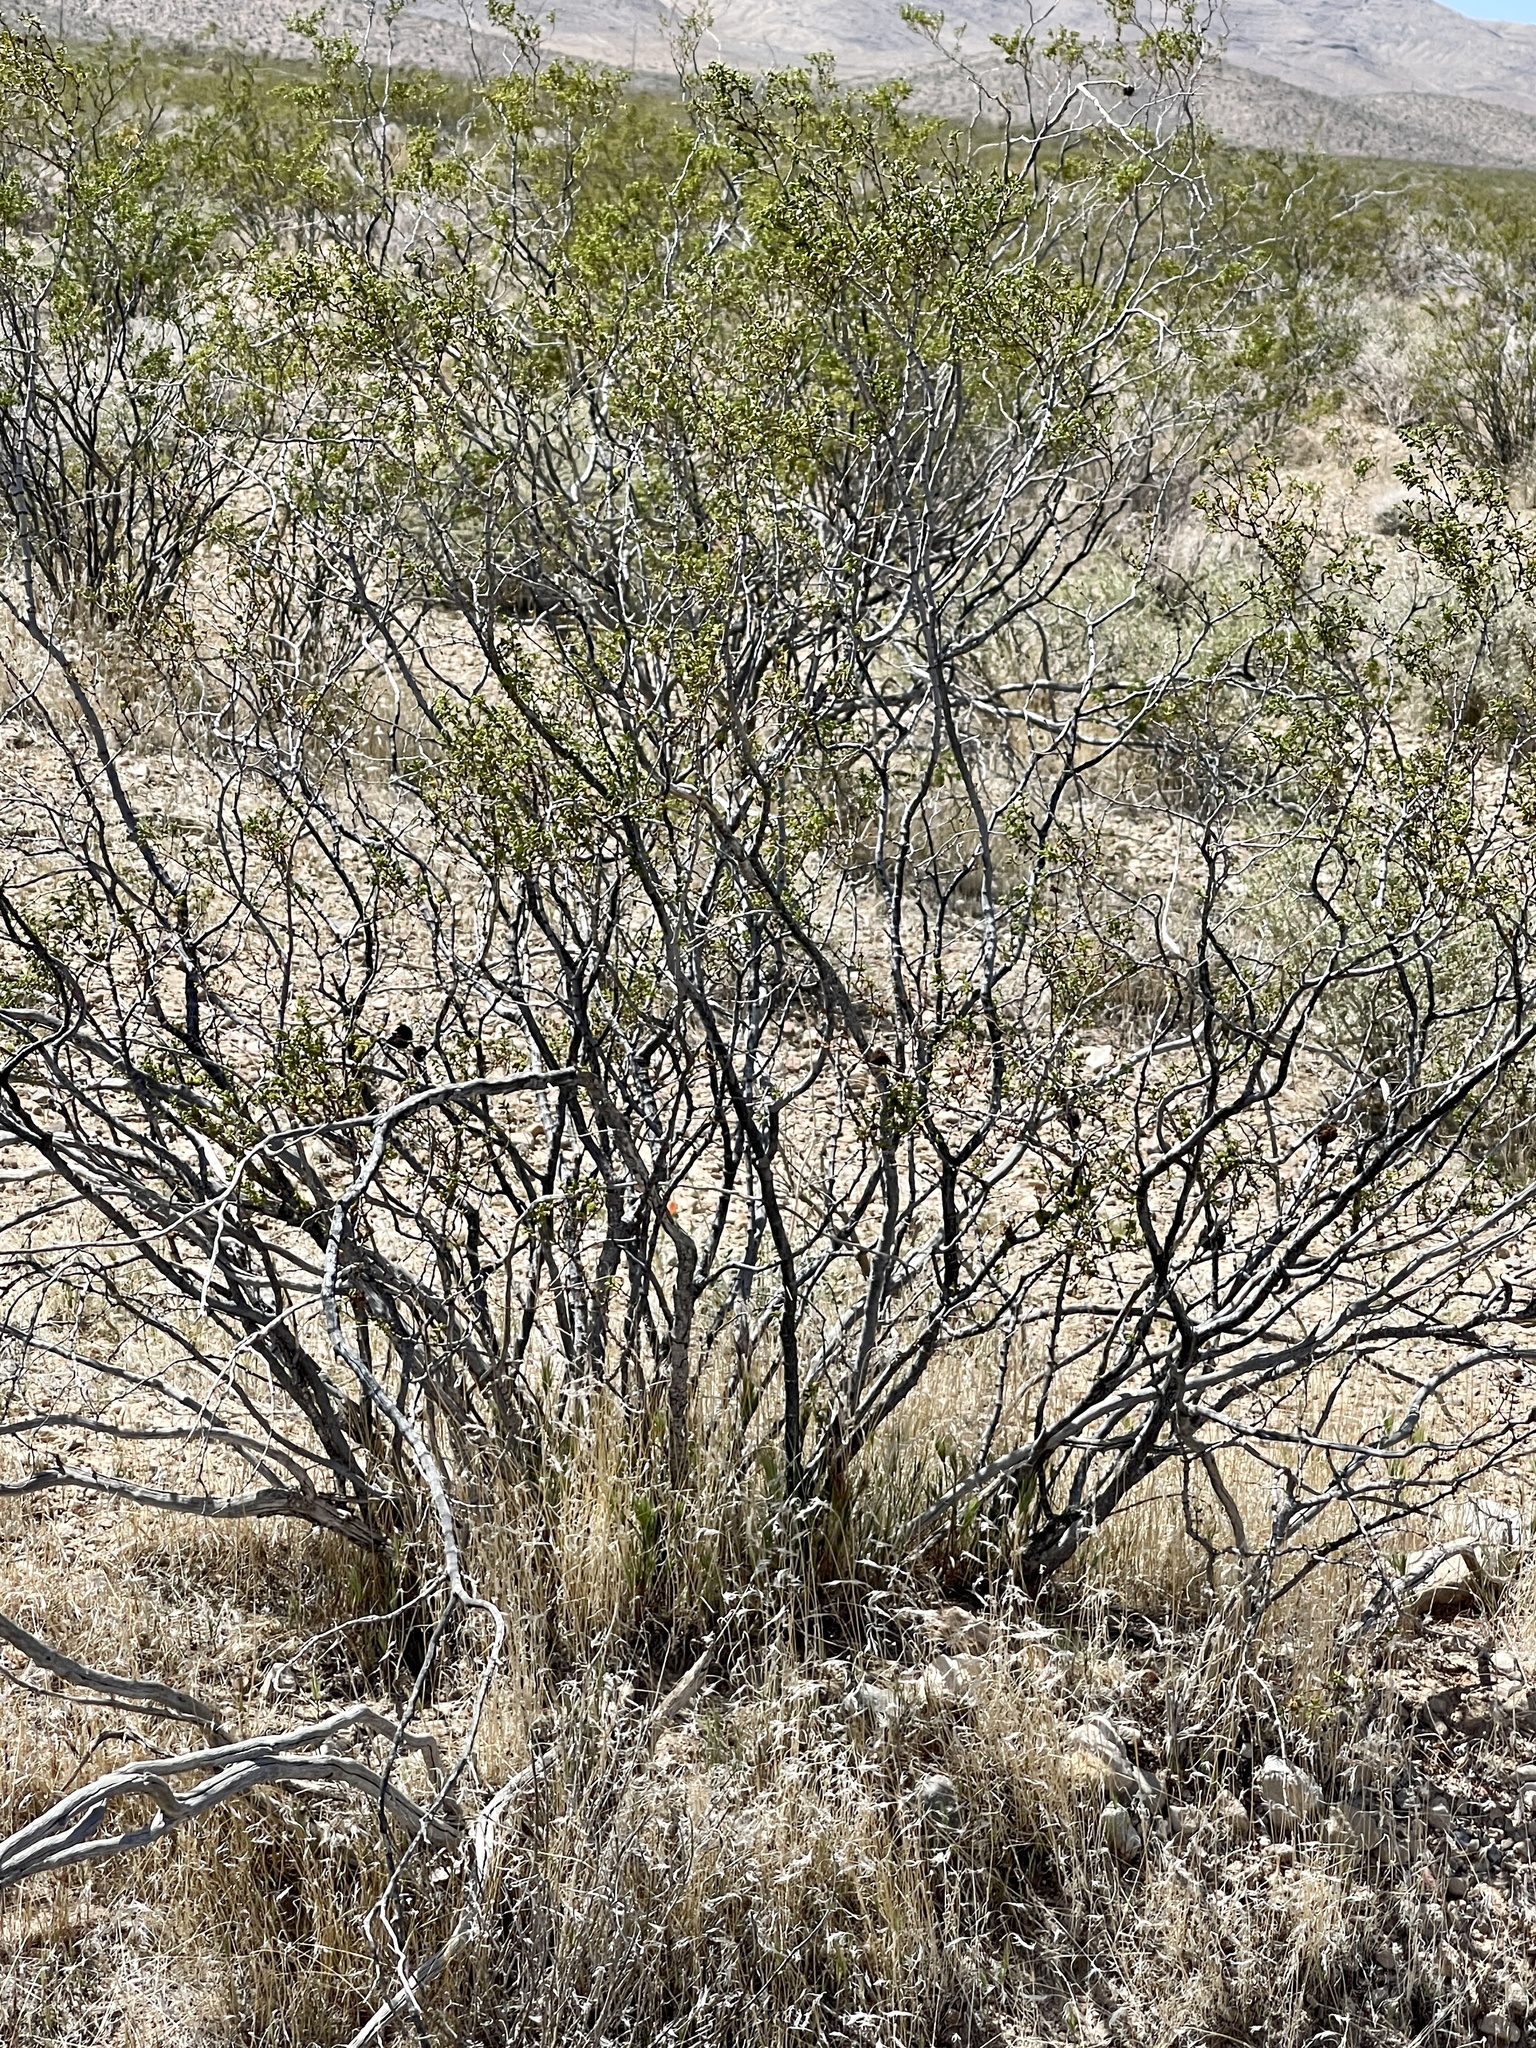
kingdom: Plantae
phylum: Tracheophyta
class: Magnoliopsida
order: Zygophyllales
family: Zygophyllaceae
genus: Larrea
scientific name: Larrea tridentata
